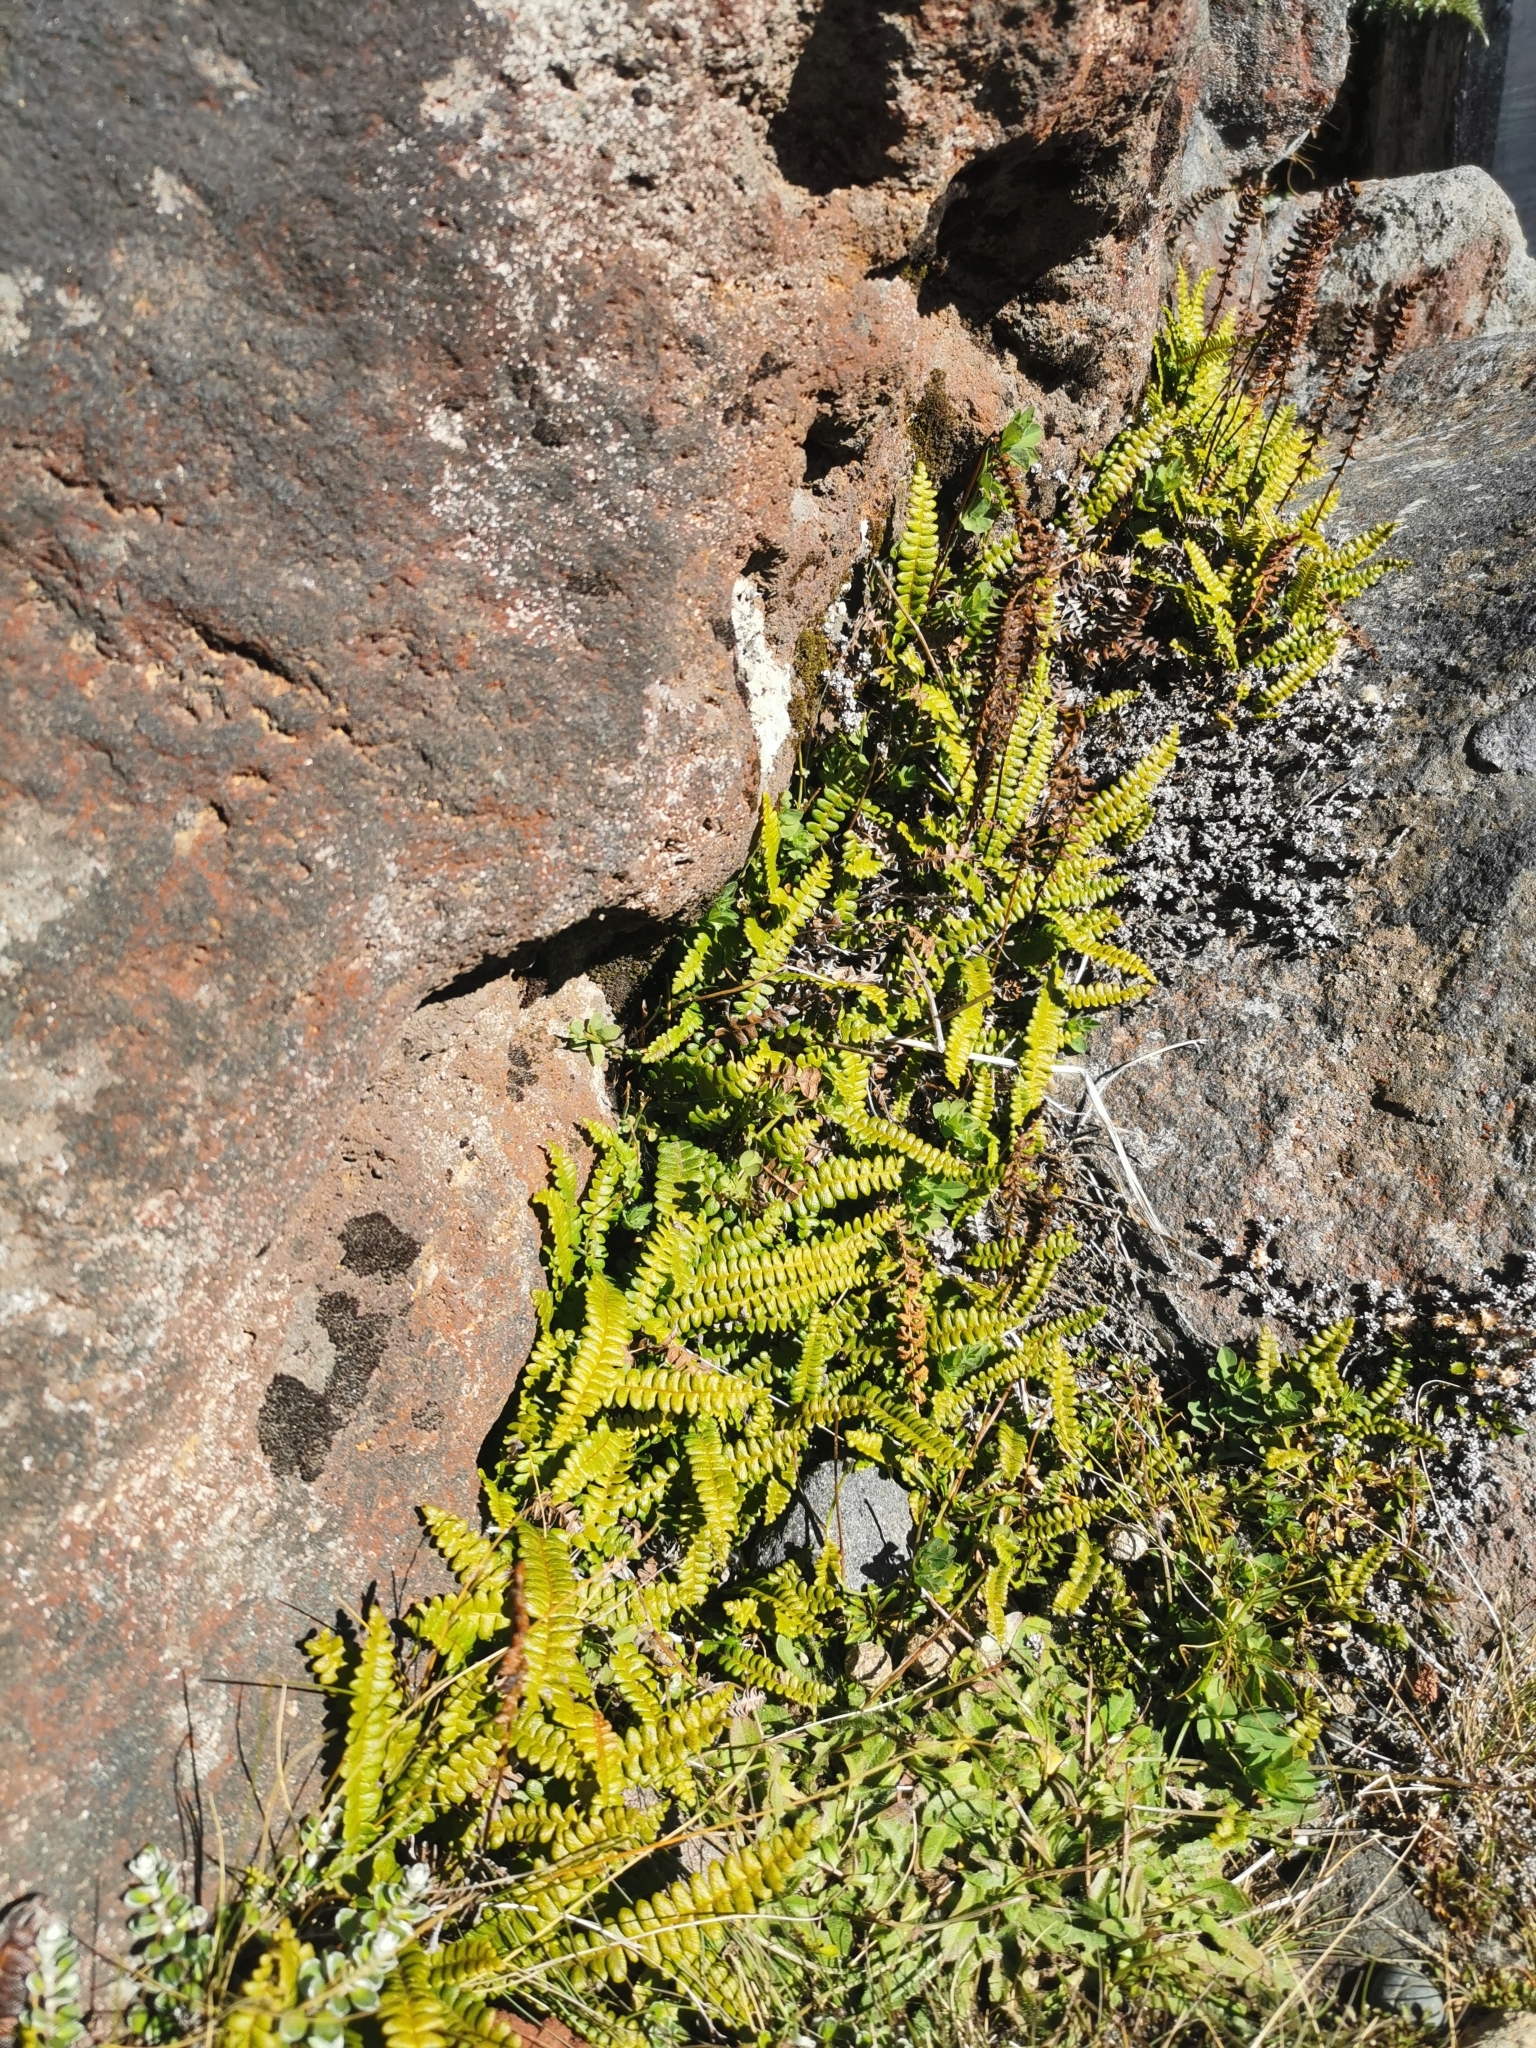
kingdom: Plantae
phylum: Tracheophyta
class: Polypodiopsida
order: Polypodiales
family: Blechnaceae
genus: Austroblechnum
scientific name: Austroblechnum penna-marina
